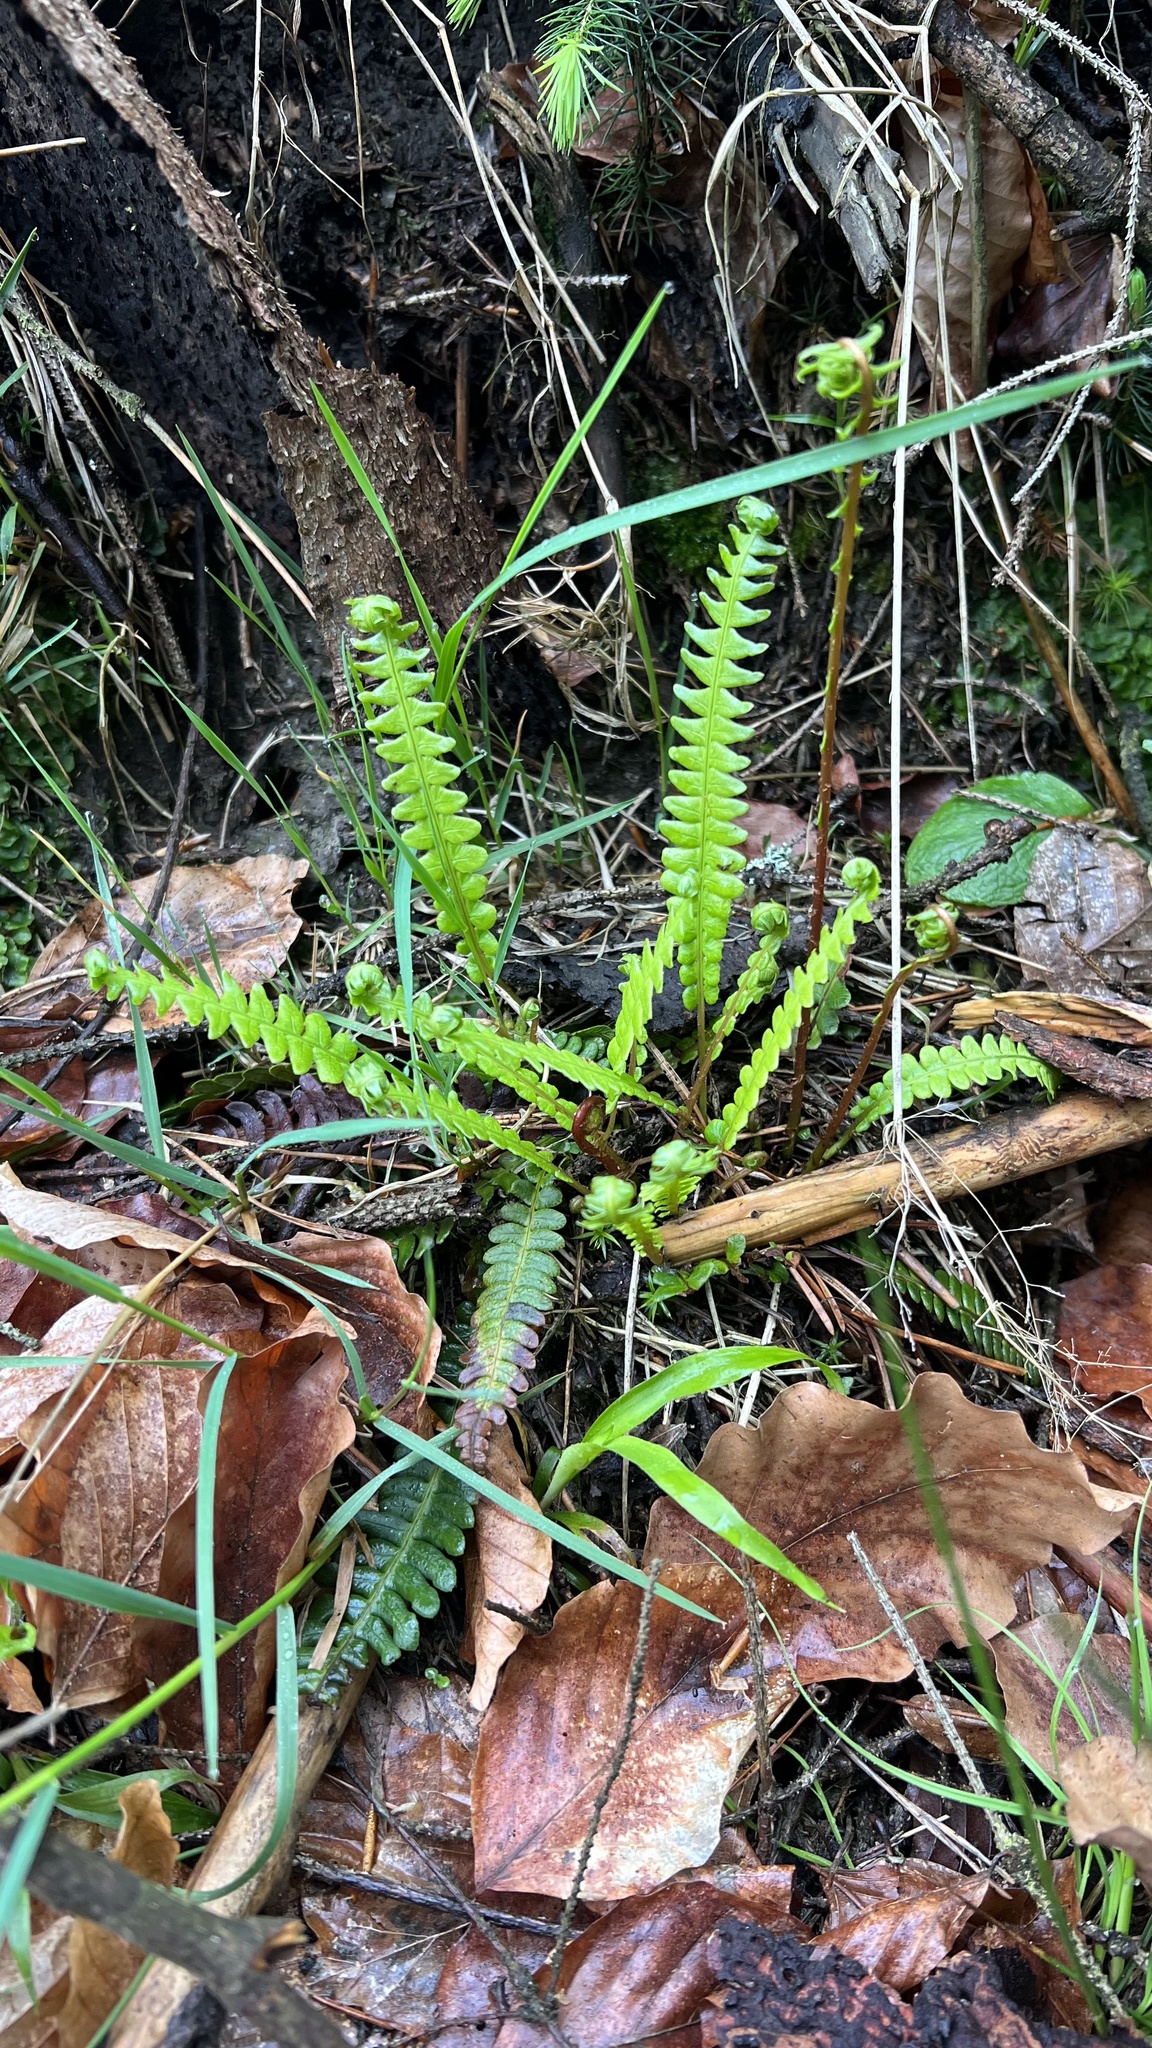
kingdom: Plantae
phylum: Tracheophyta
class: Polypodiopsida
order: Polypodiales
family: Blechnaceae
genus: Struthiopteris
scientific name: Struthiopteris spicant
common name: Deer fern
